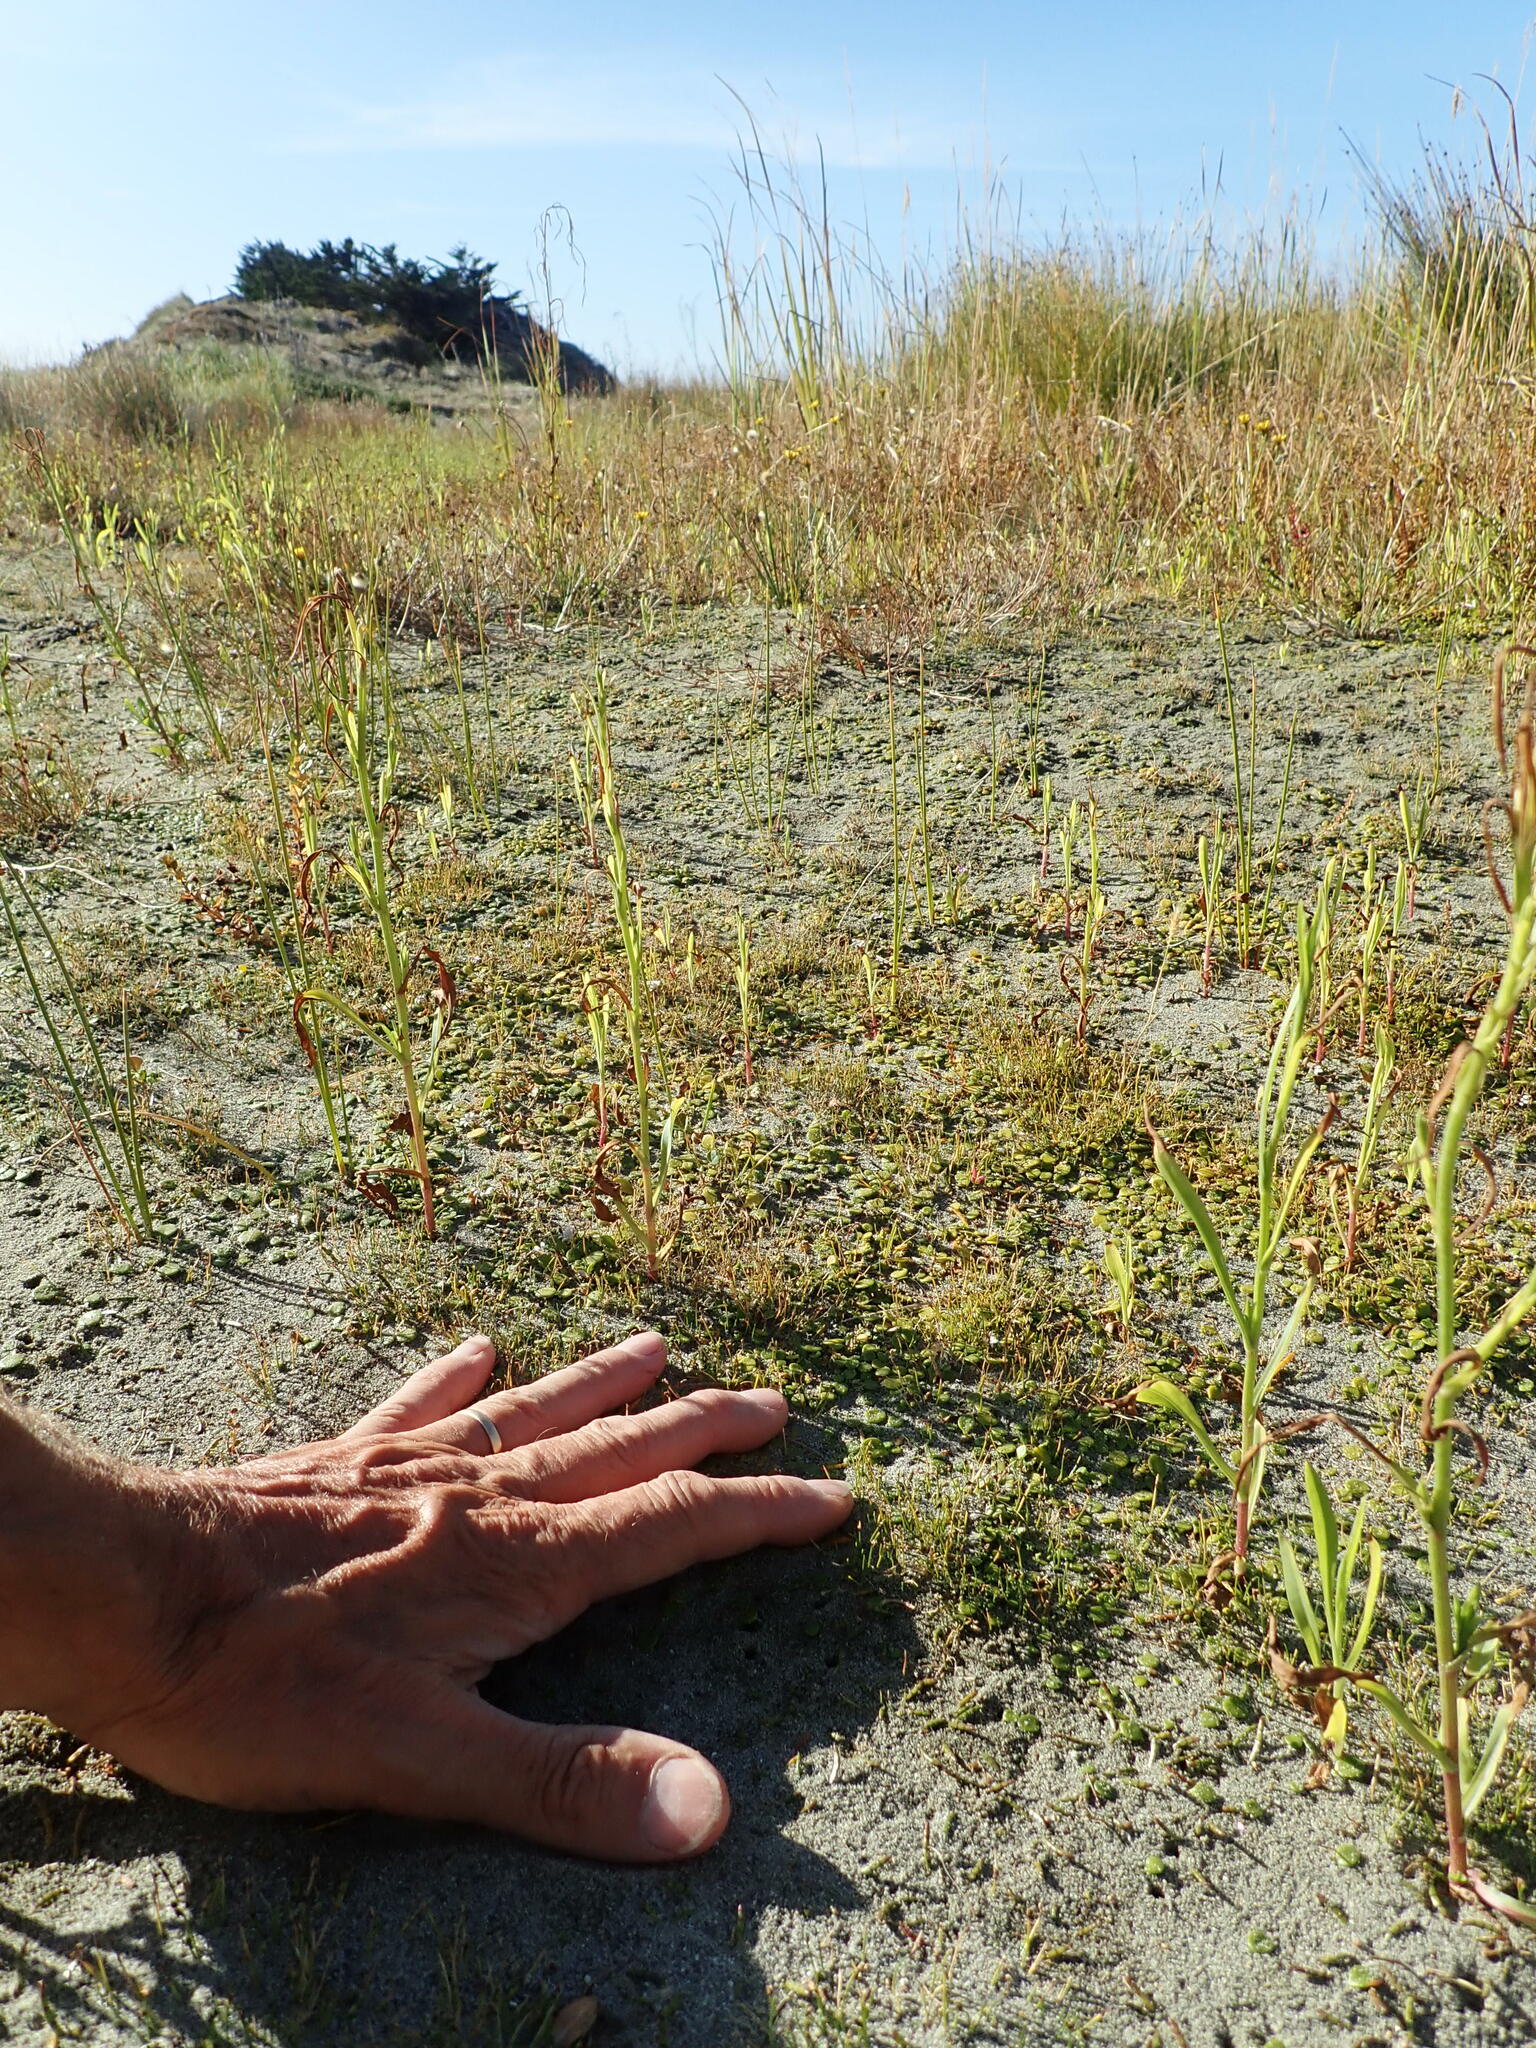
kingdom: Plantae
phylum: Tracheophyta
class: Magnoliopsida
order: Asterales
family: Goodeniaceae
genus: Goodenia
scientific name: Goodenia heenanii
